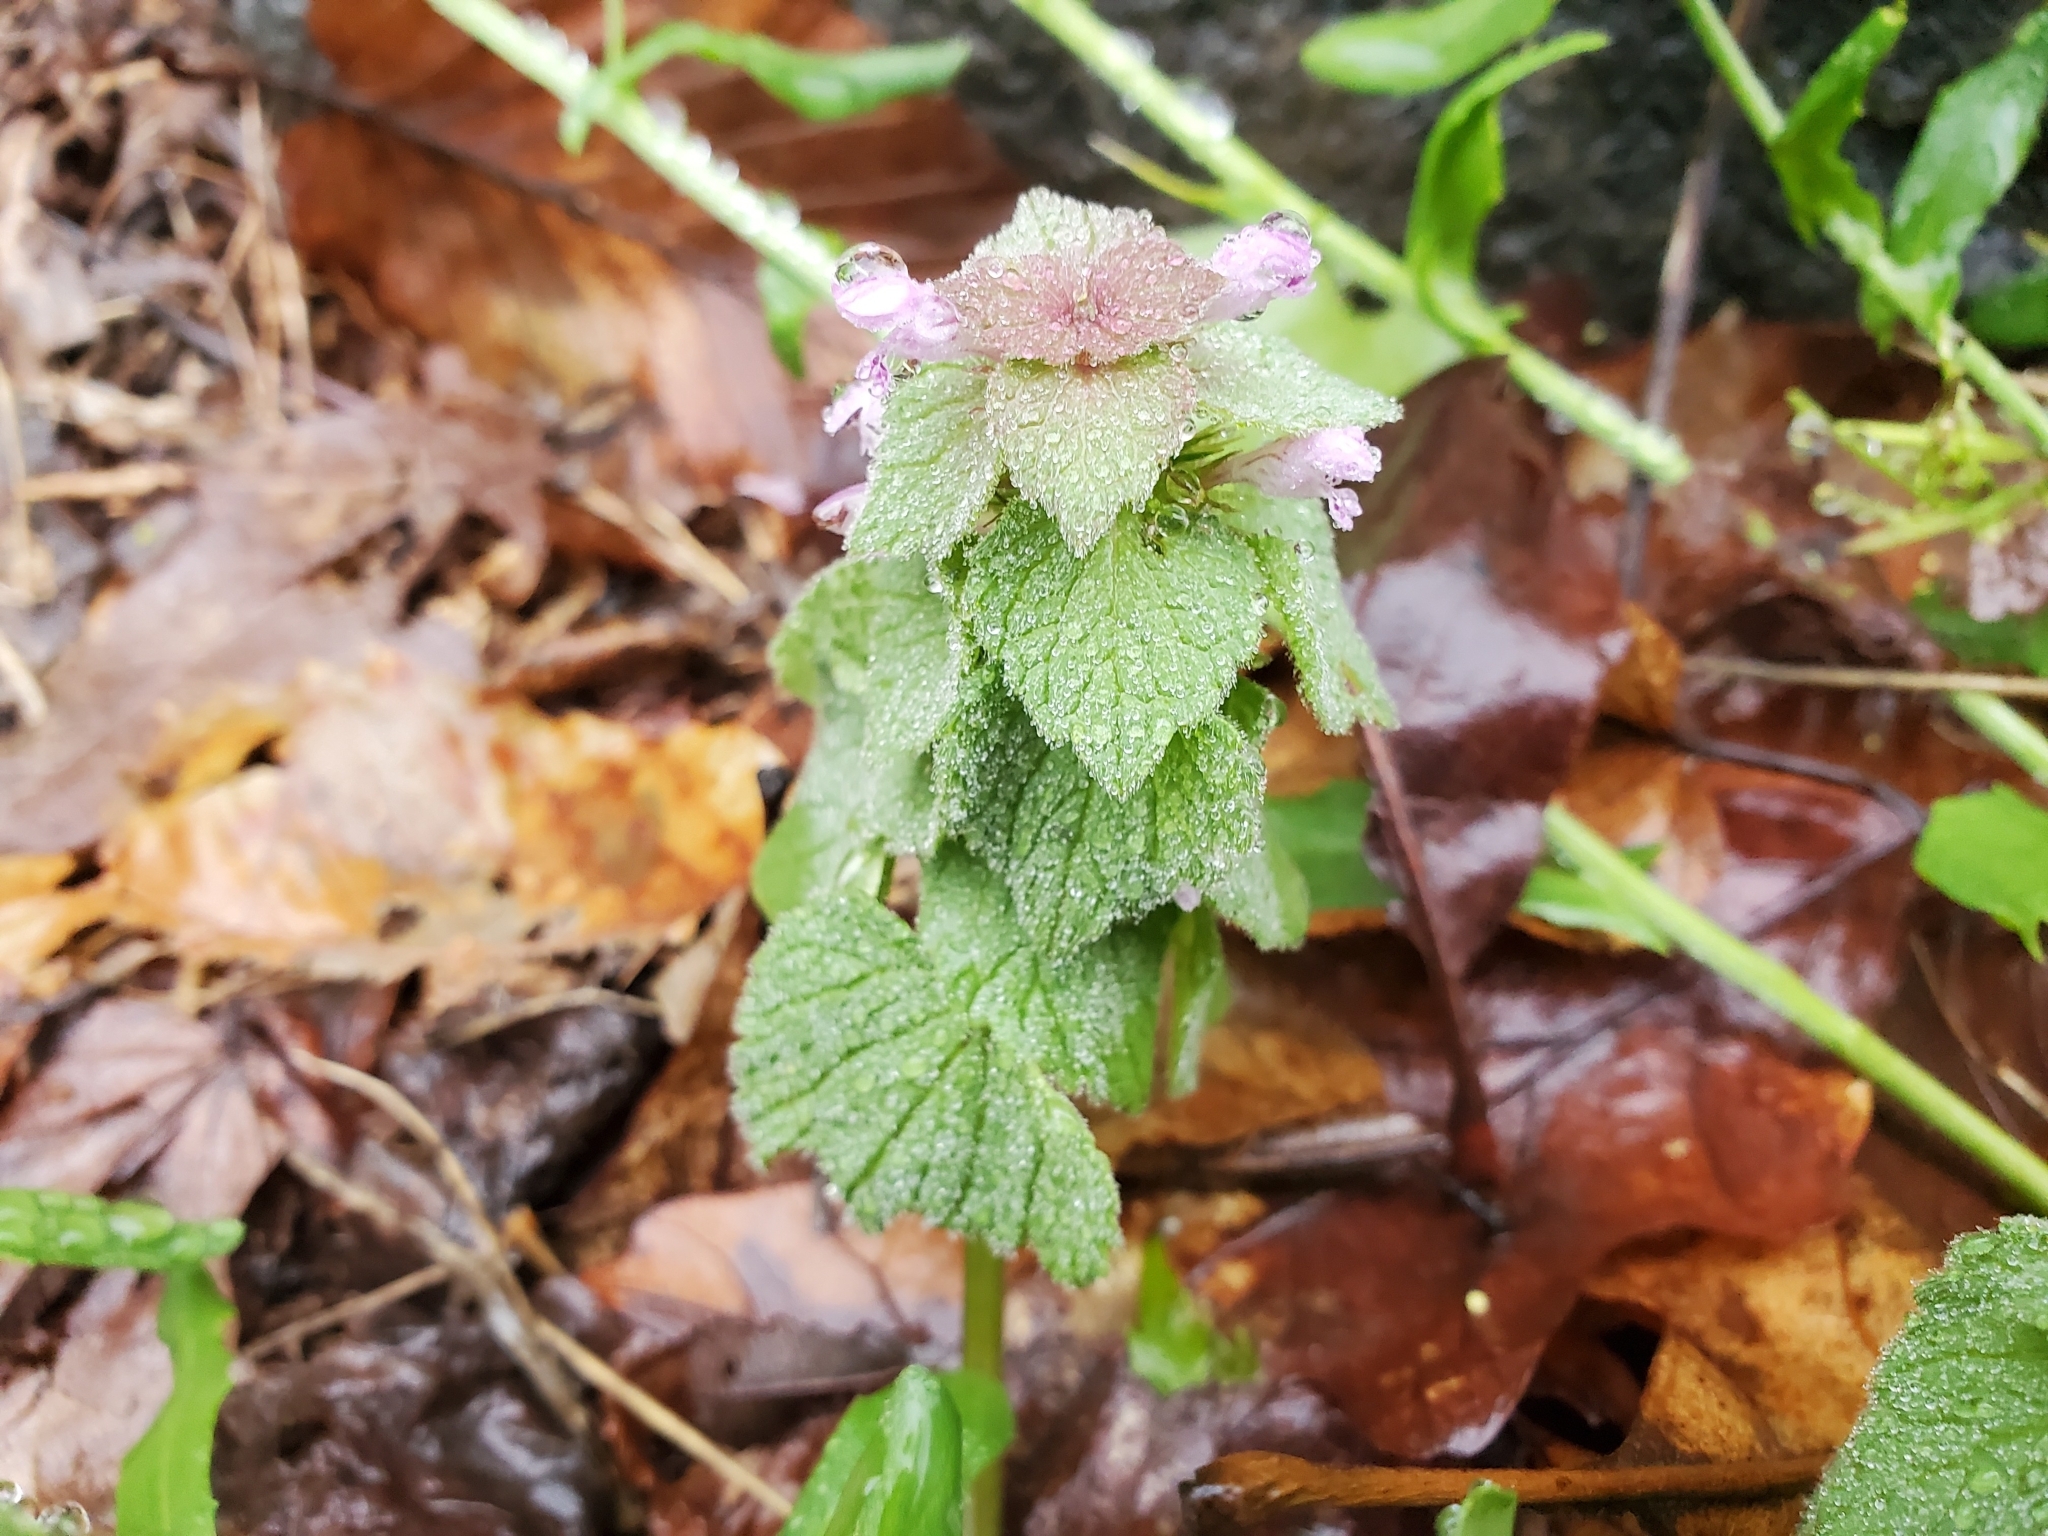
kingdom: Plantae
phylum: Tracheophyta
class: Magnoliopsida
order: Lamiales
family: Lamiaceae
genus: Lamium
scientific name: Lamium purpureum
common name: Red dead-nettle
